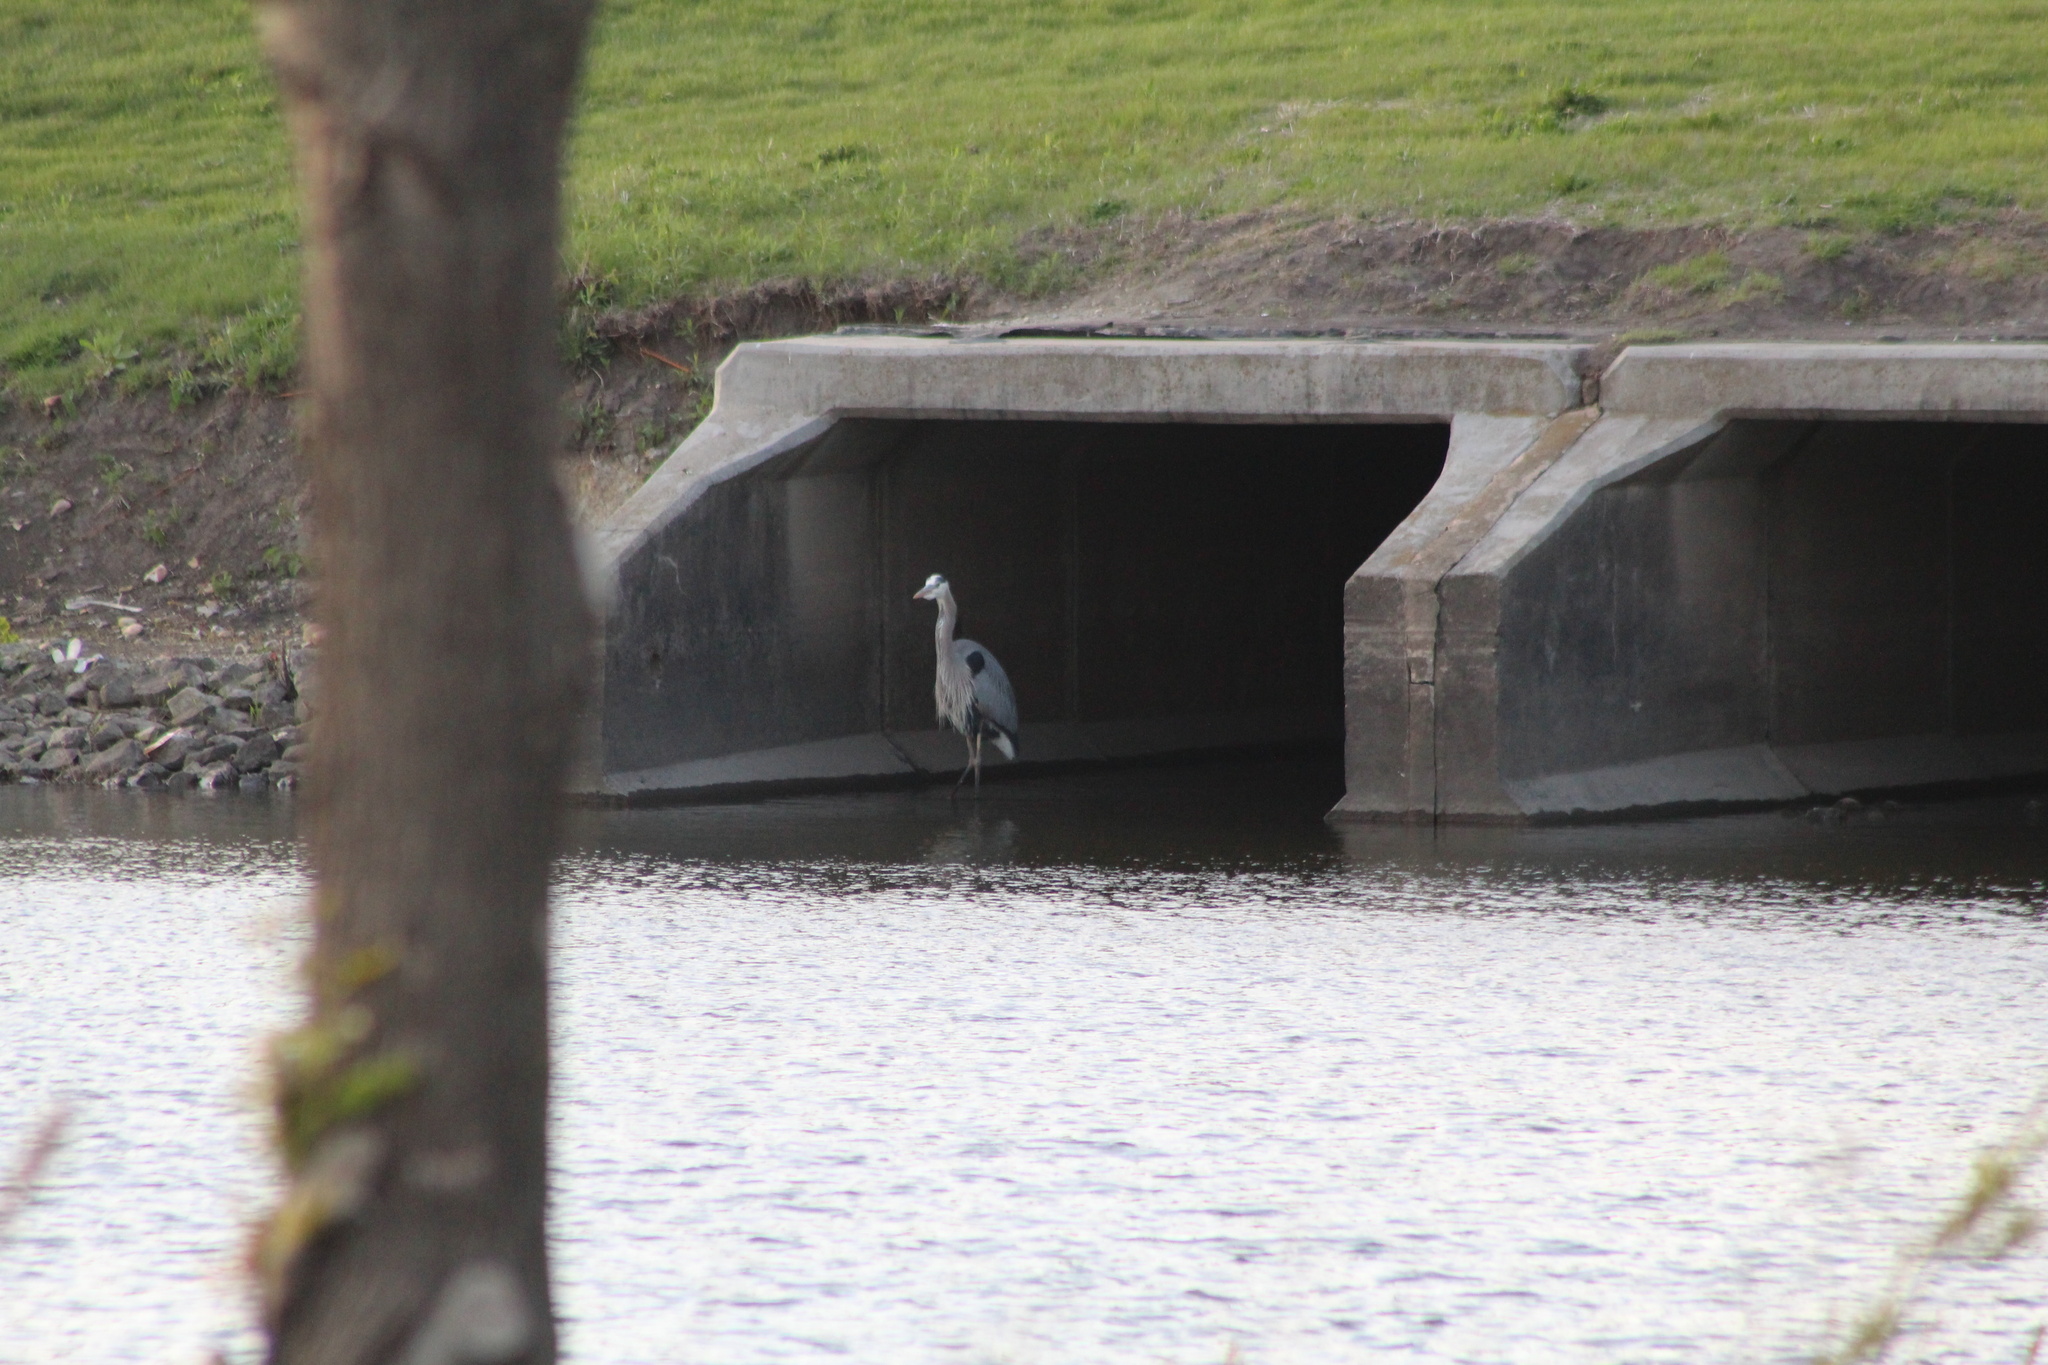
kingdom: Animalia
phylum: Chordata
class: Aves
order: Pelecaniformes
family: Ardeidae
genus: Ardea
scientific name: Ardea herodias
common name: Great blue heron
